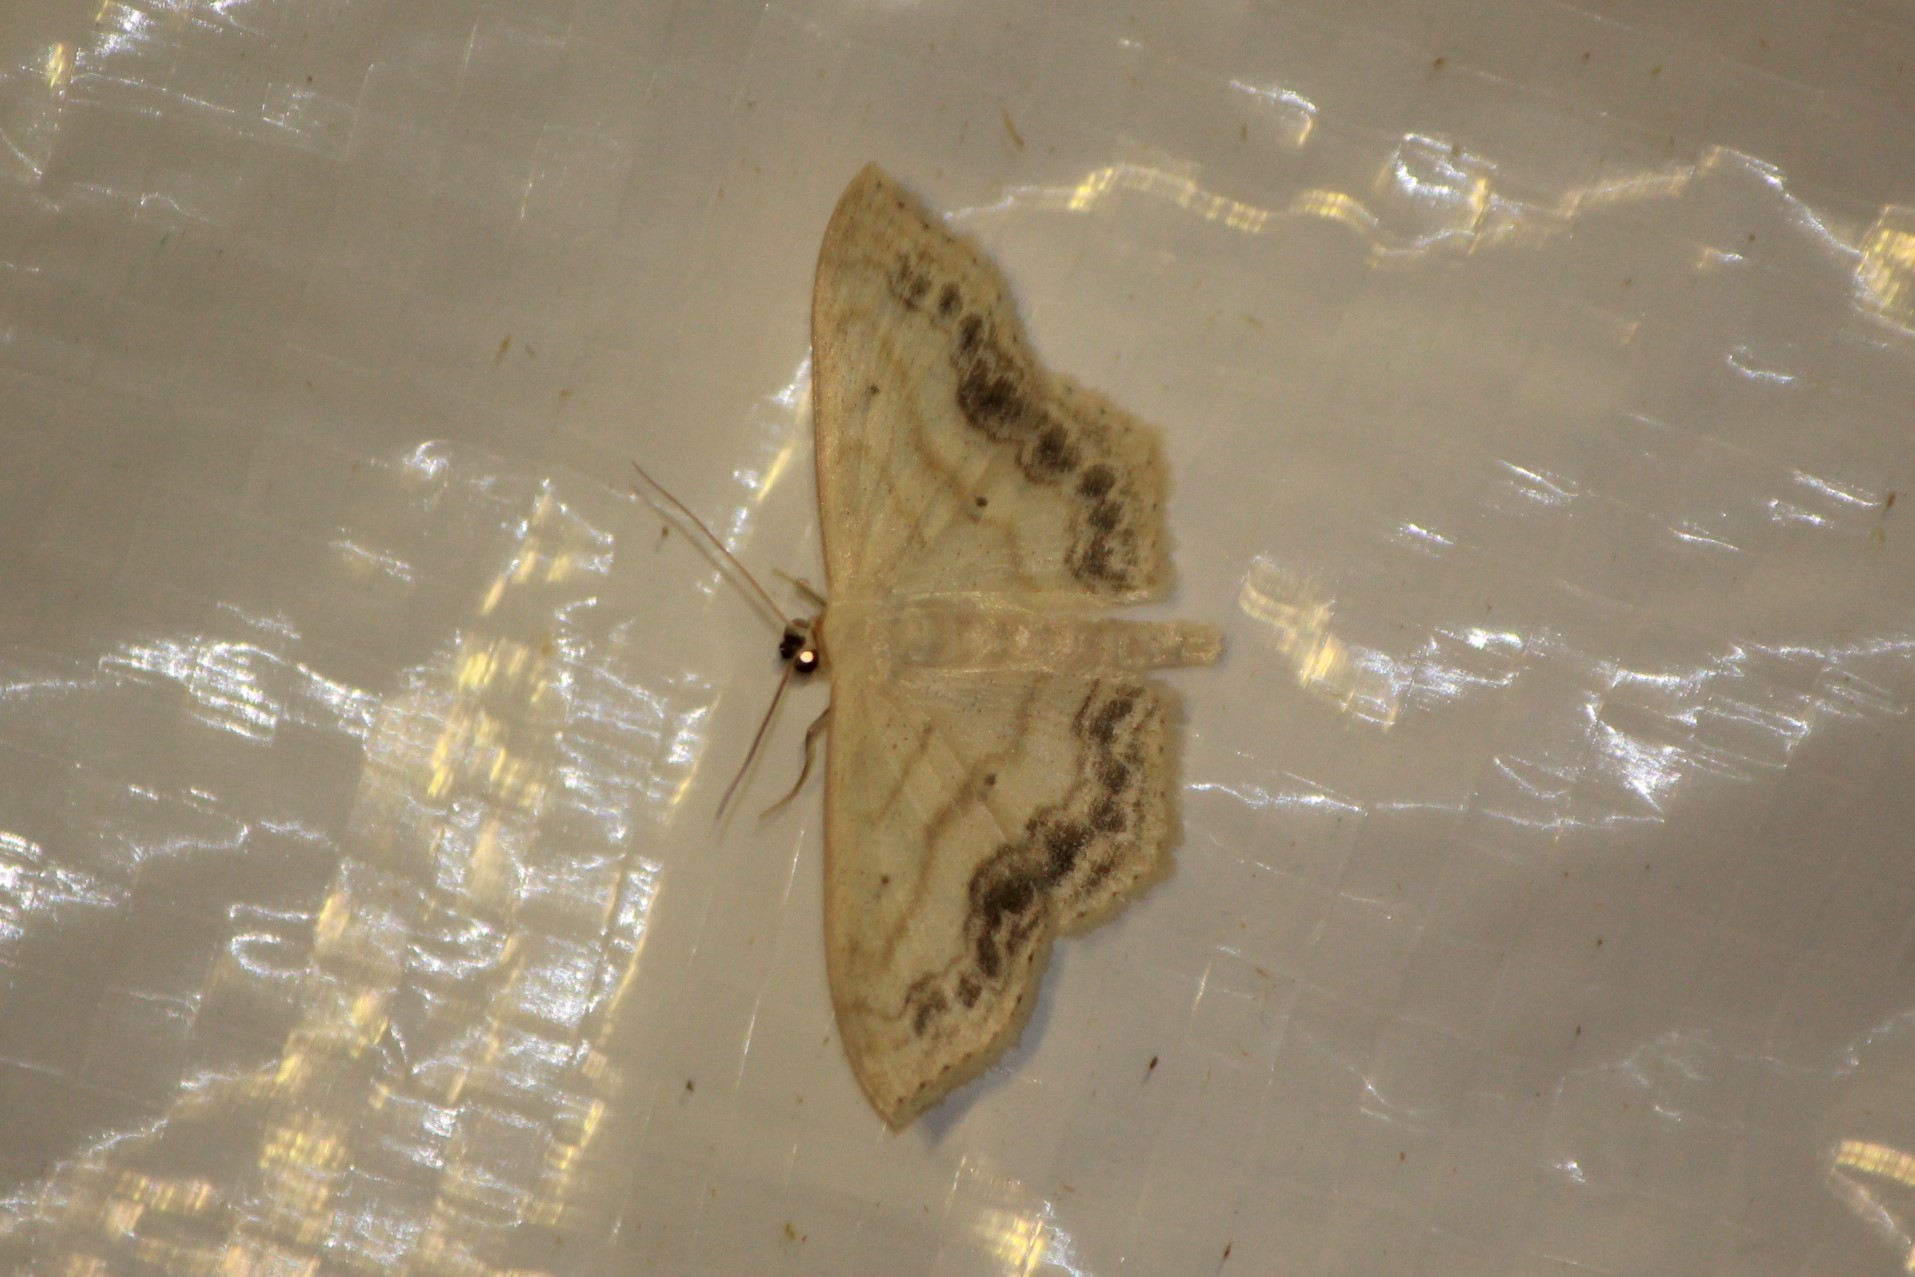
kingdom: Animalia
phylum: Arthropoda
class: Insecta
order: Lepidoptera
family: Geometridae
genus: Scopula
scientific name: Scopula limboundata
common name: Large lace border
